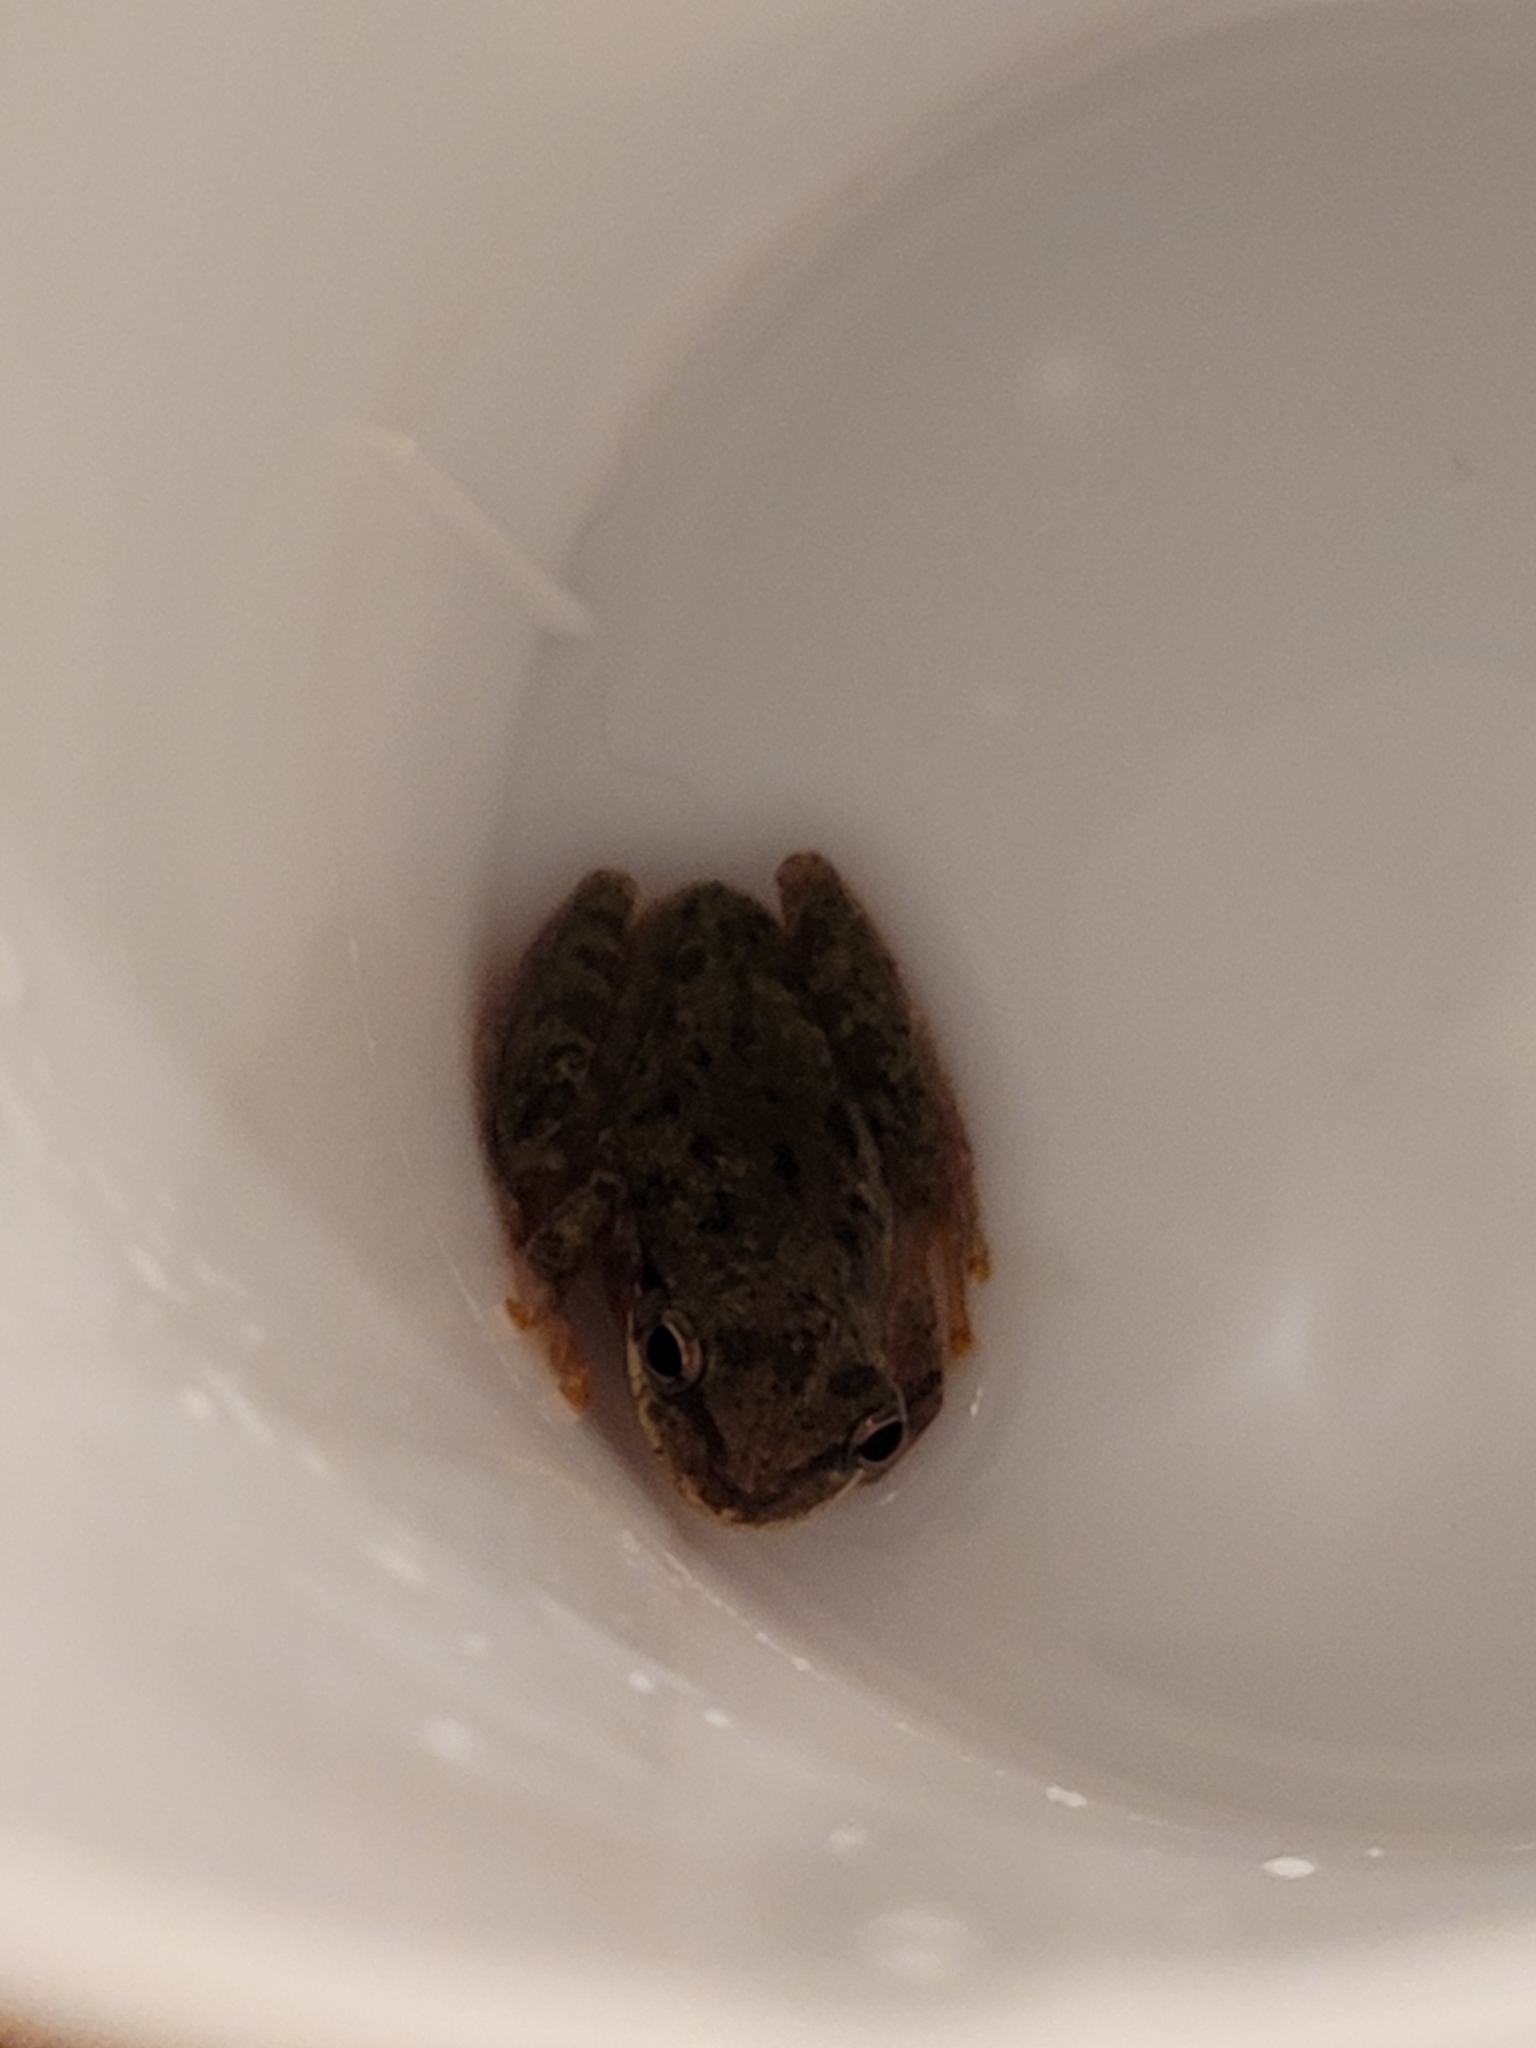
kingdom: Animalia
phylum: Chordata
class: Amphibia
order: Anura
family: Hylidae
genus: Dryophytes
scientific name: Dryophytes squirellus
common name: Squirrel treefrog
